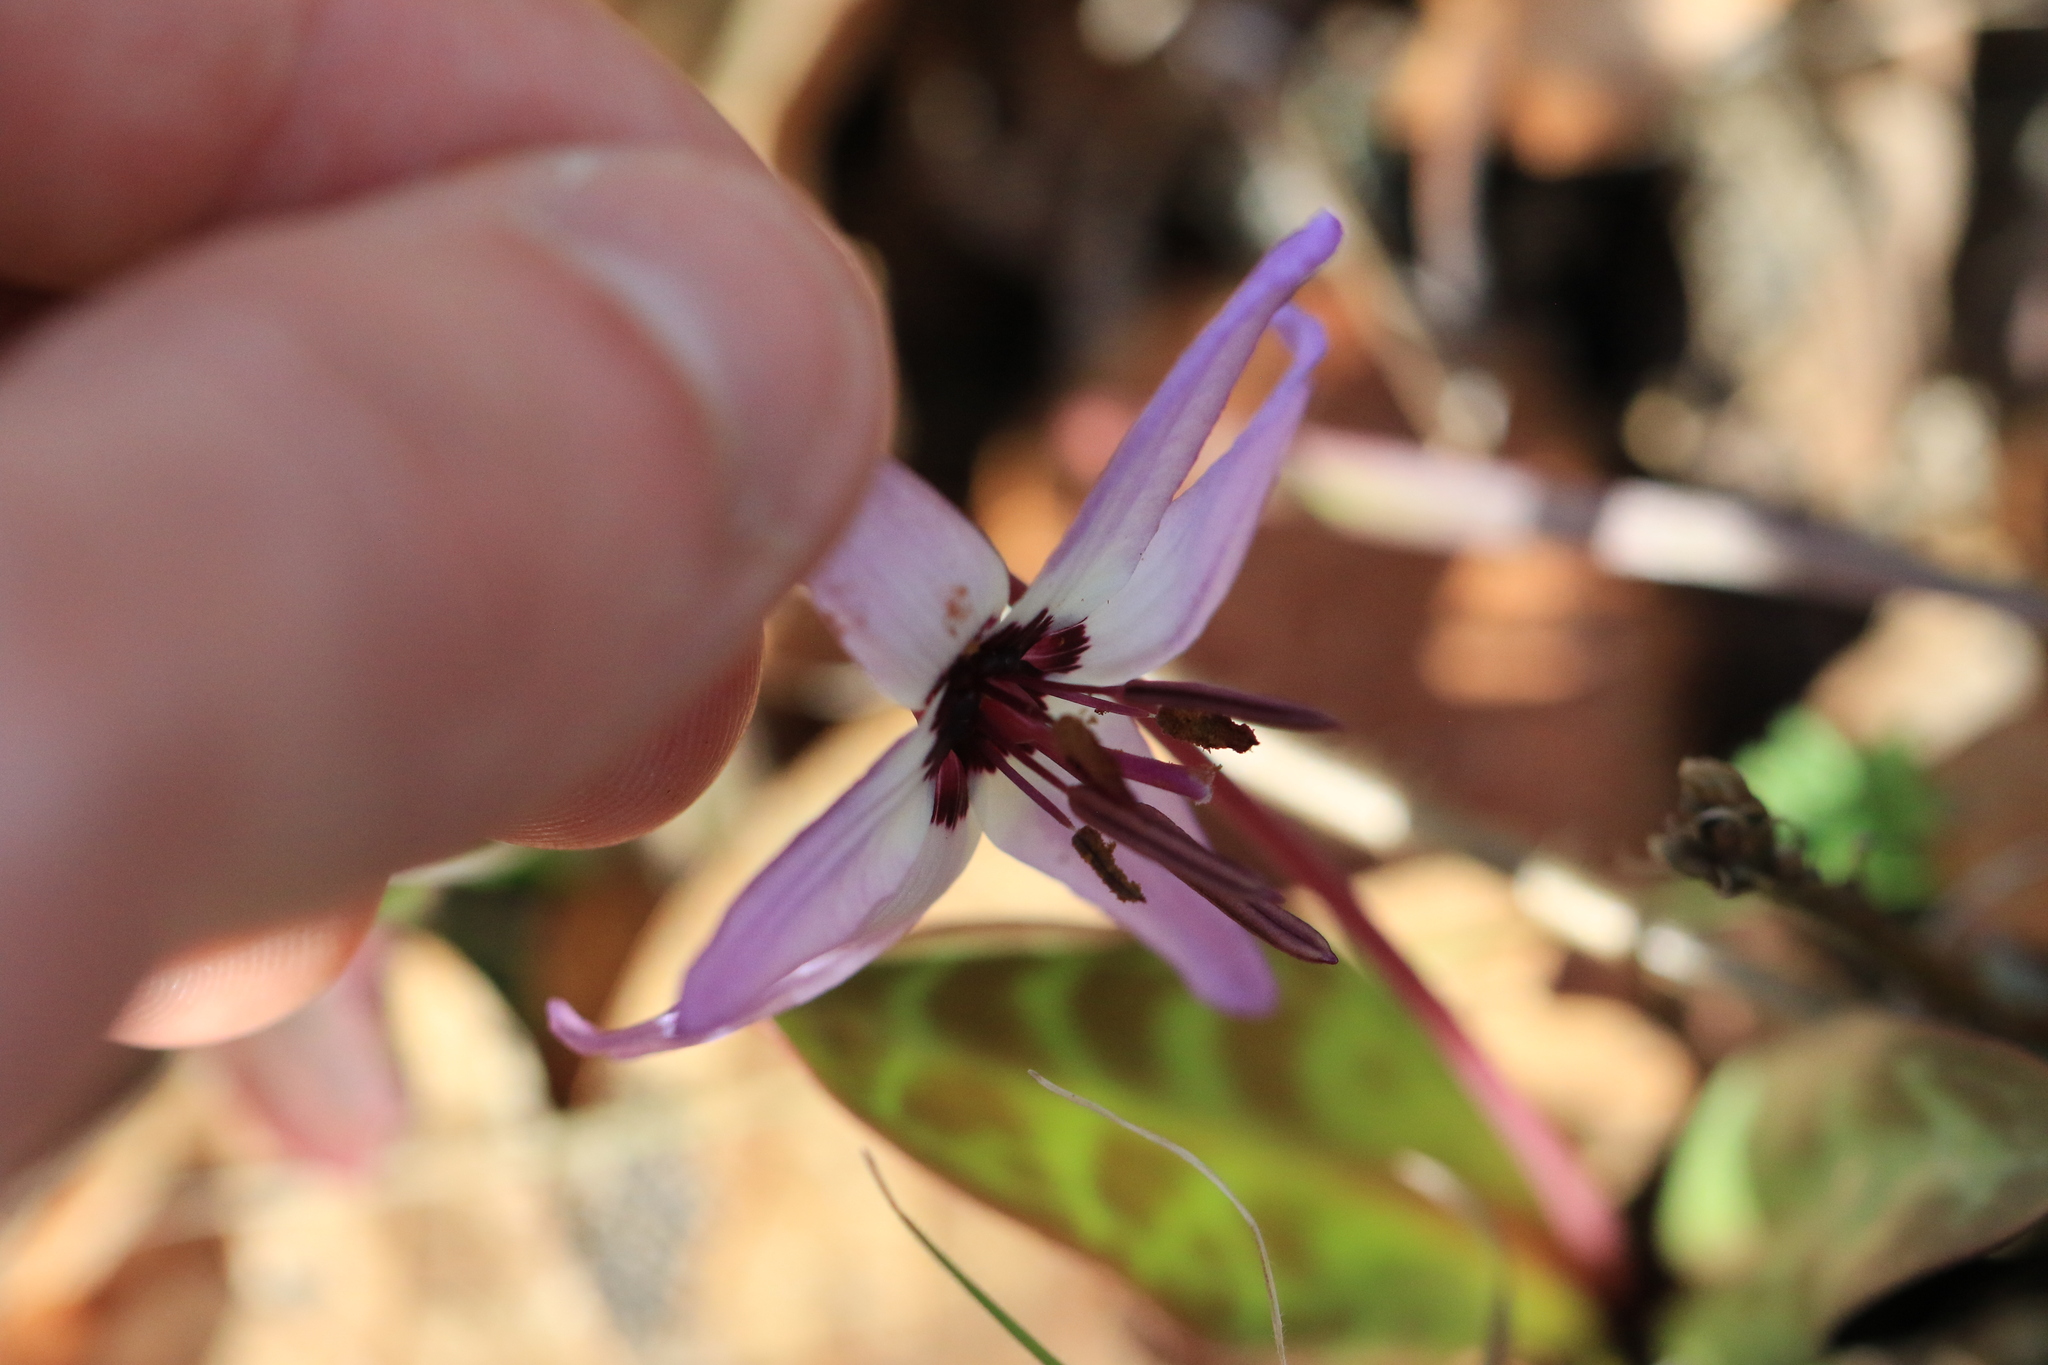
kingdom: Plantae
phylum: Tracheophyta
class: Liliopsida
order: Liliales
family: Liliaceae
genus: Erythronium
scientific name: Erythronium hendersonii
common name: Henderson's fawn-lily
